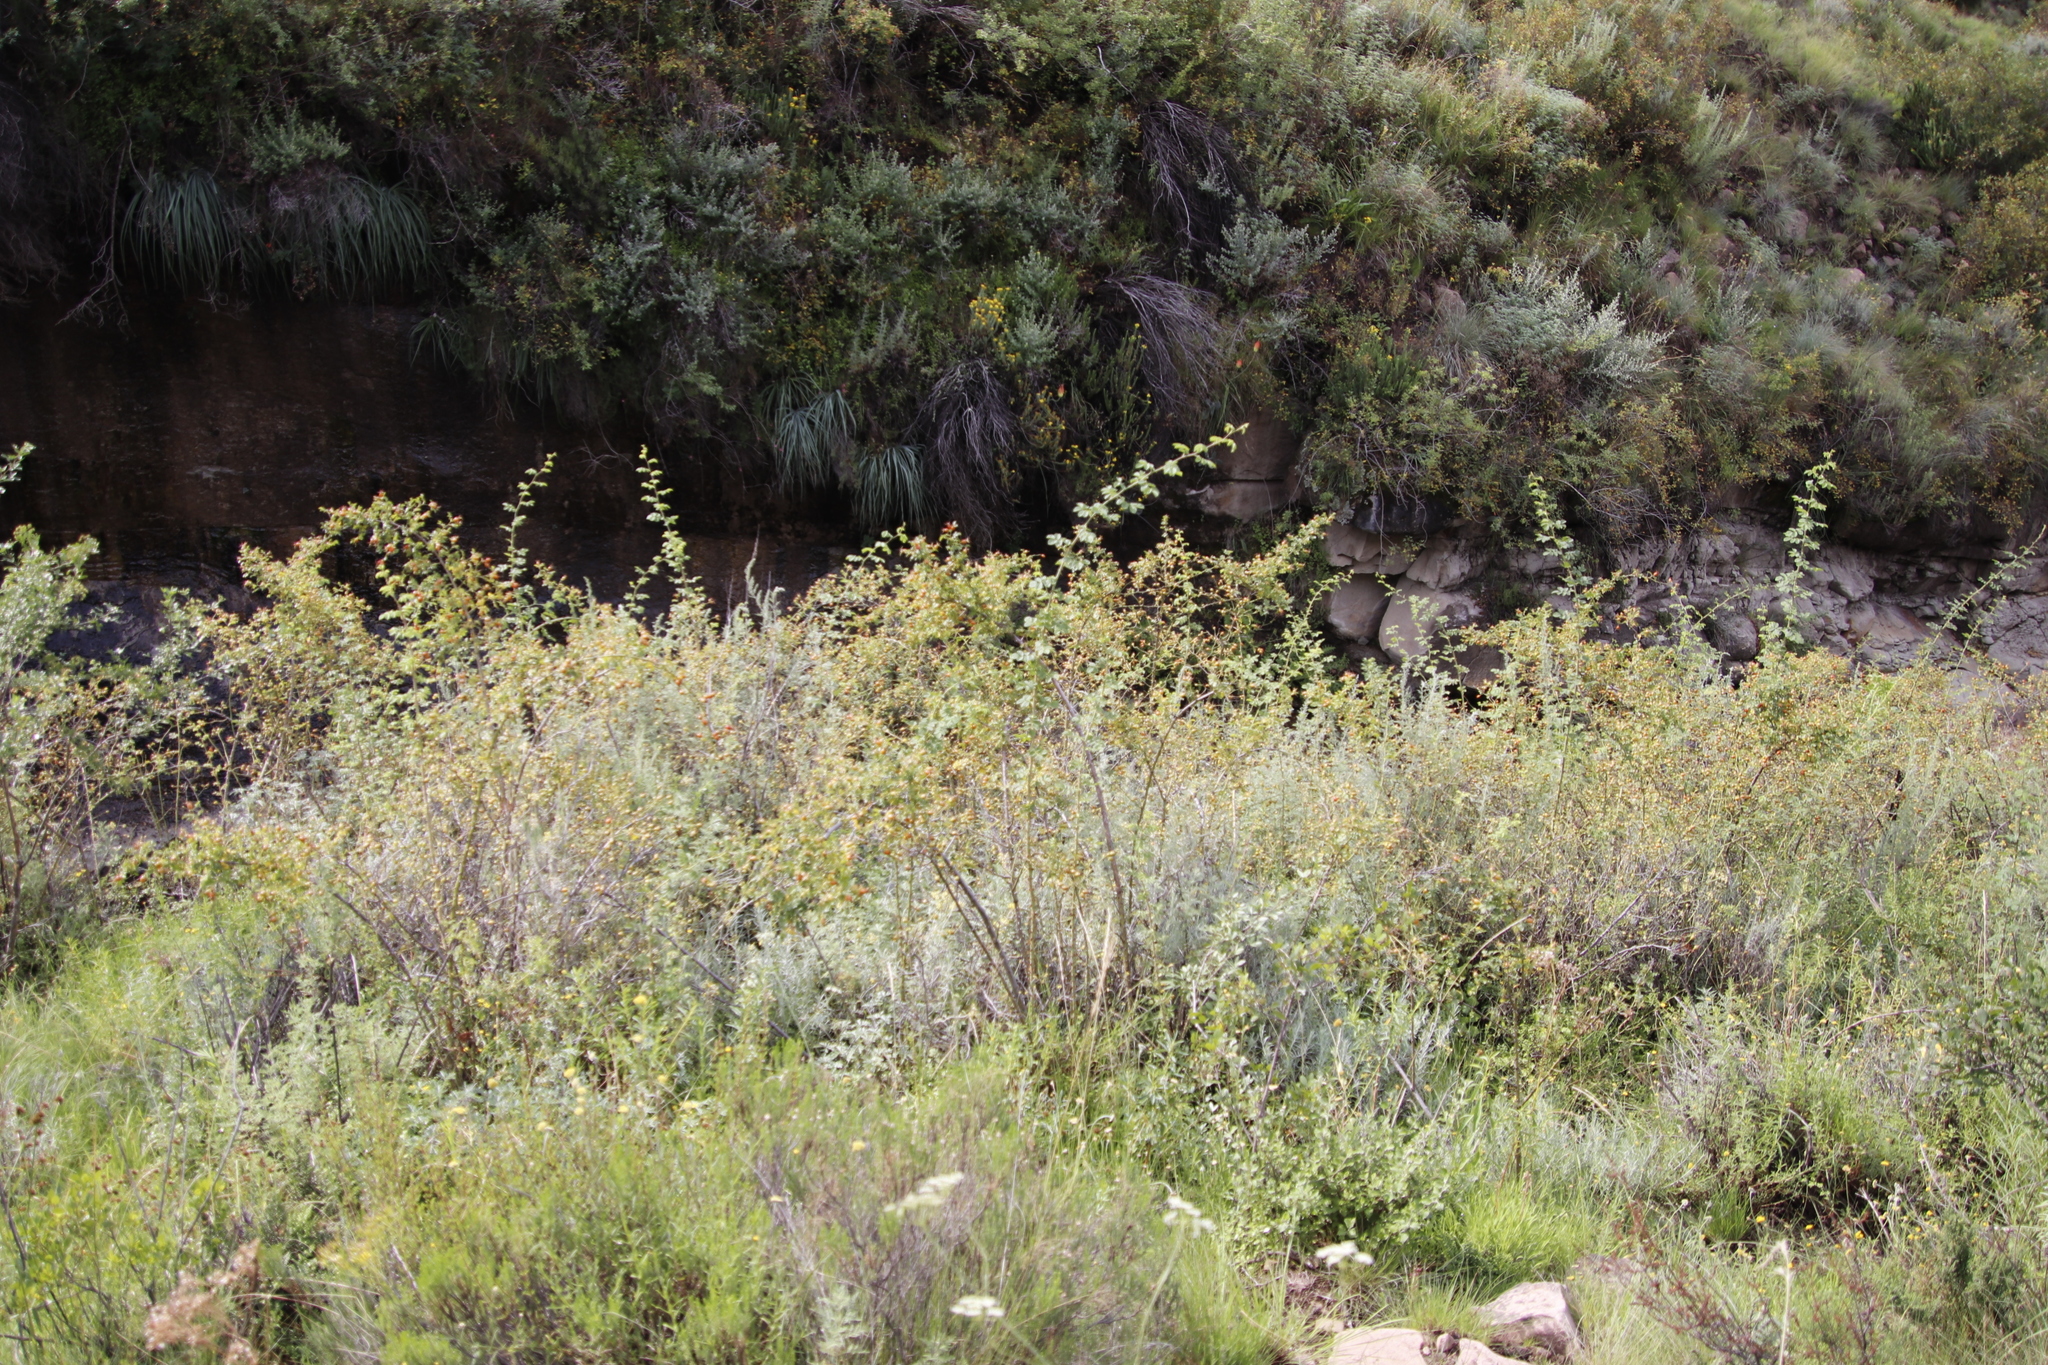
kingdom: Plantae
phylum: Tracheophyta
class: Magnoliopsida
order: Rosales
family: Rosaceae
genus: Rosa
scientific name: Rosa rubiginosa
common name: Sweet-briar
